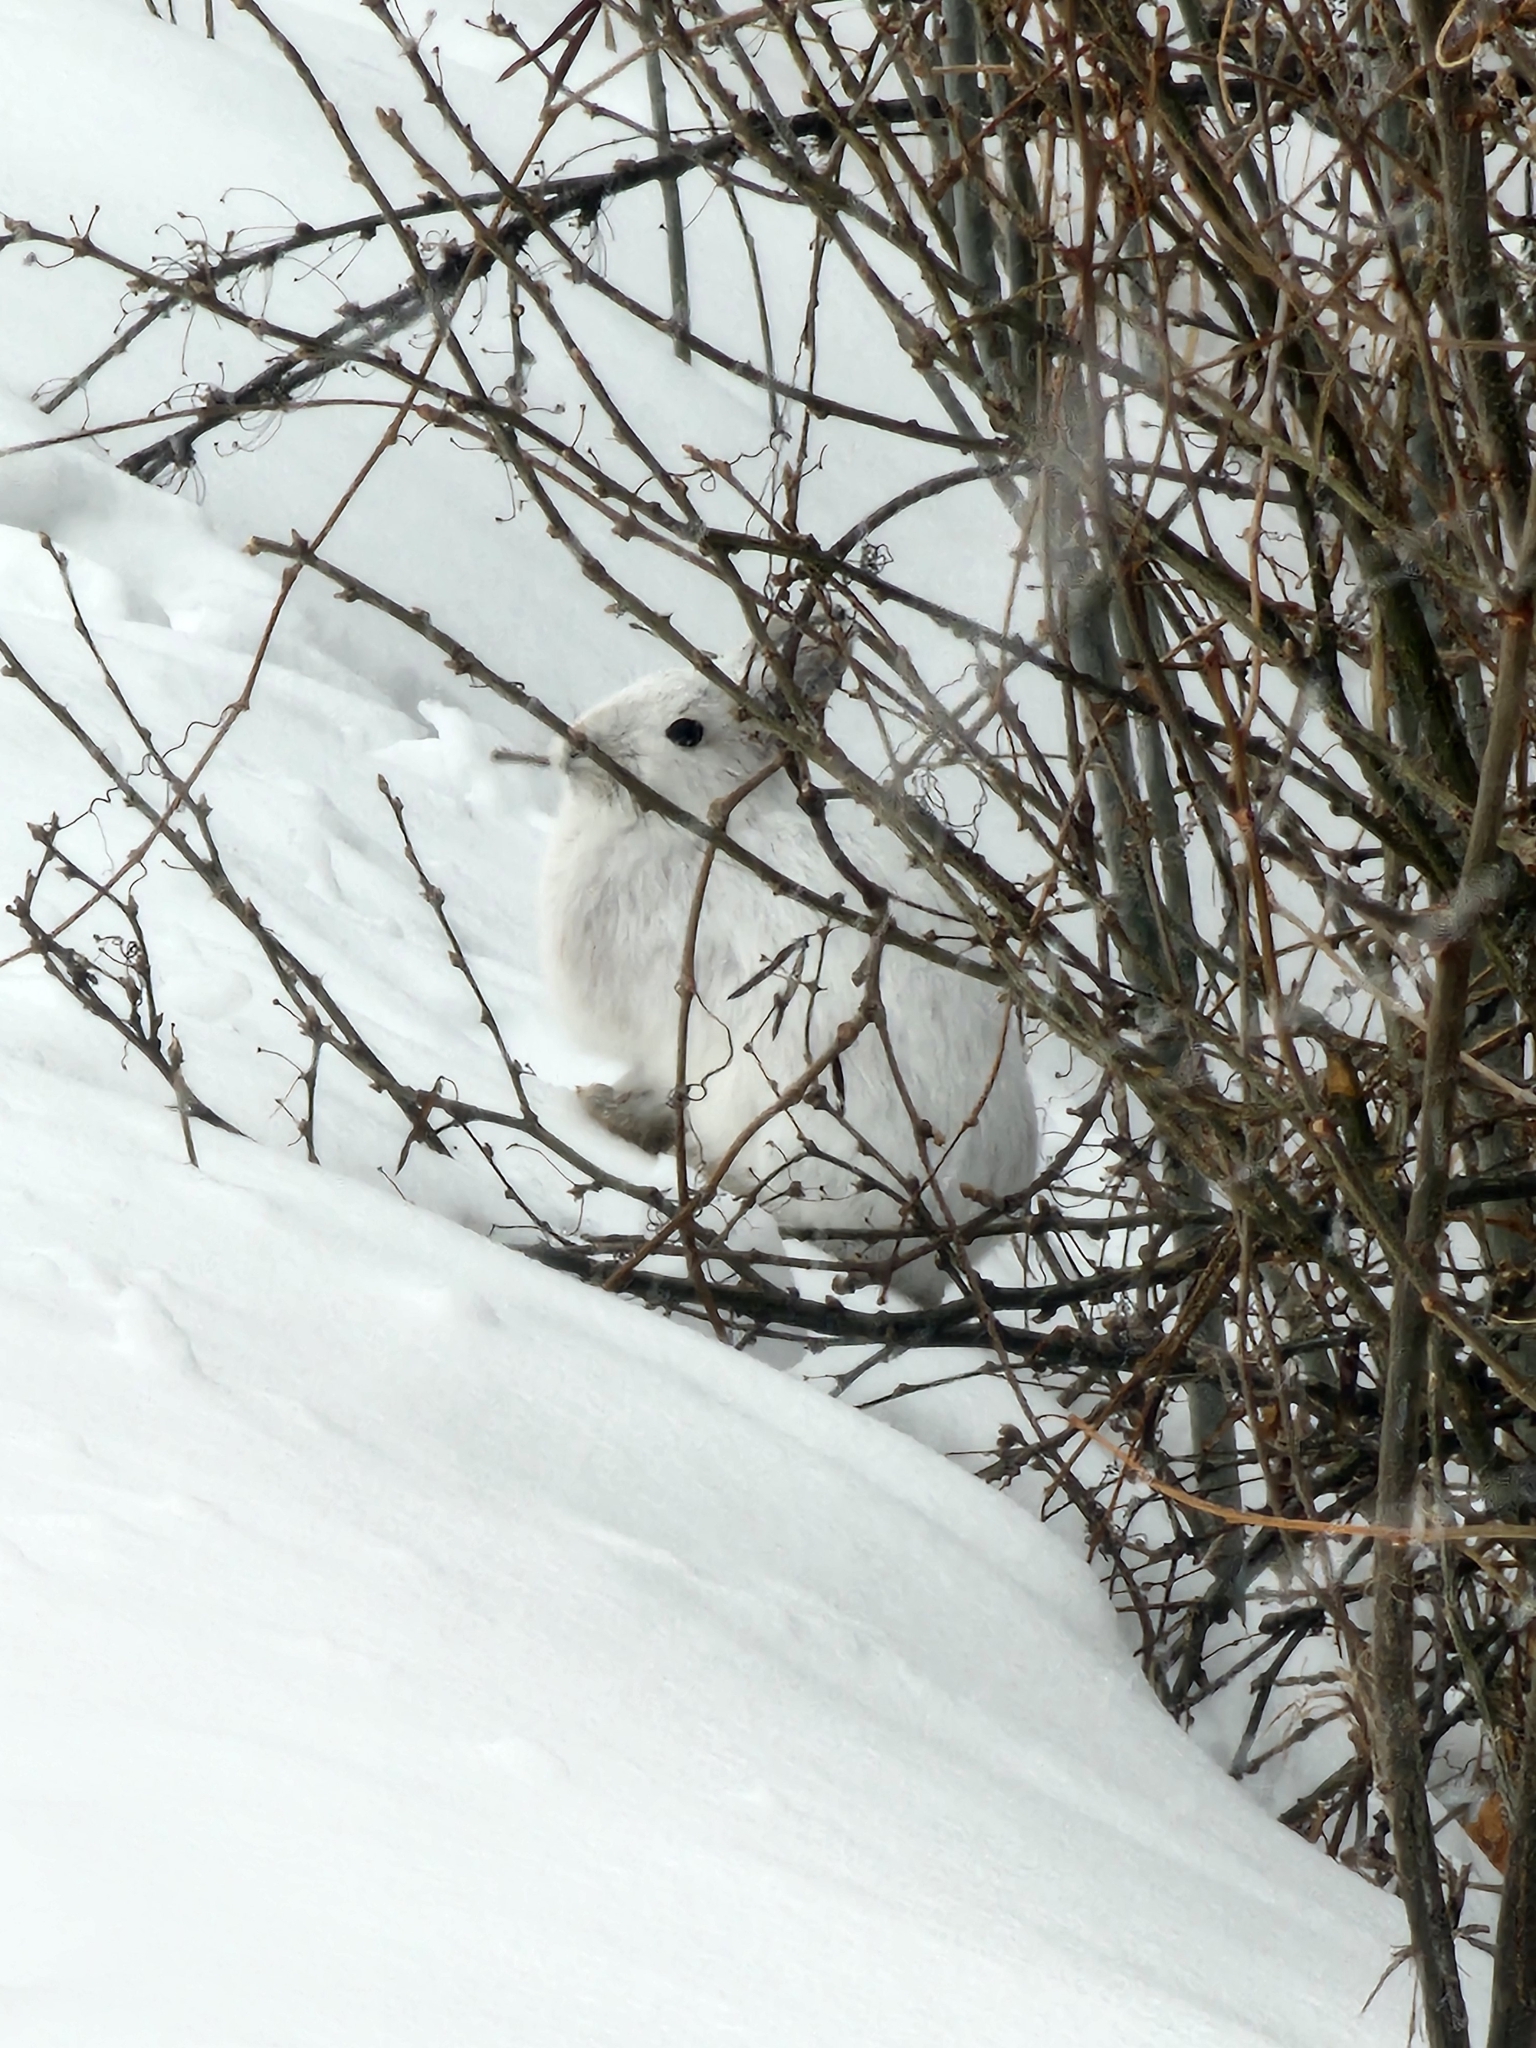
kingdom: Animalia
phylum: Chordata
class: Mammalia
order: Lagomorpha
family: Leporidae
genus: Lepus
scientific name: Lepus americanus
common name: Snowshoe hare
